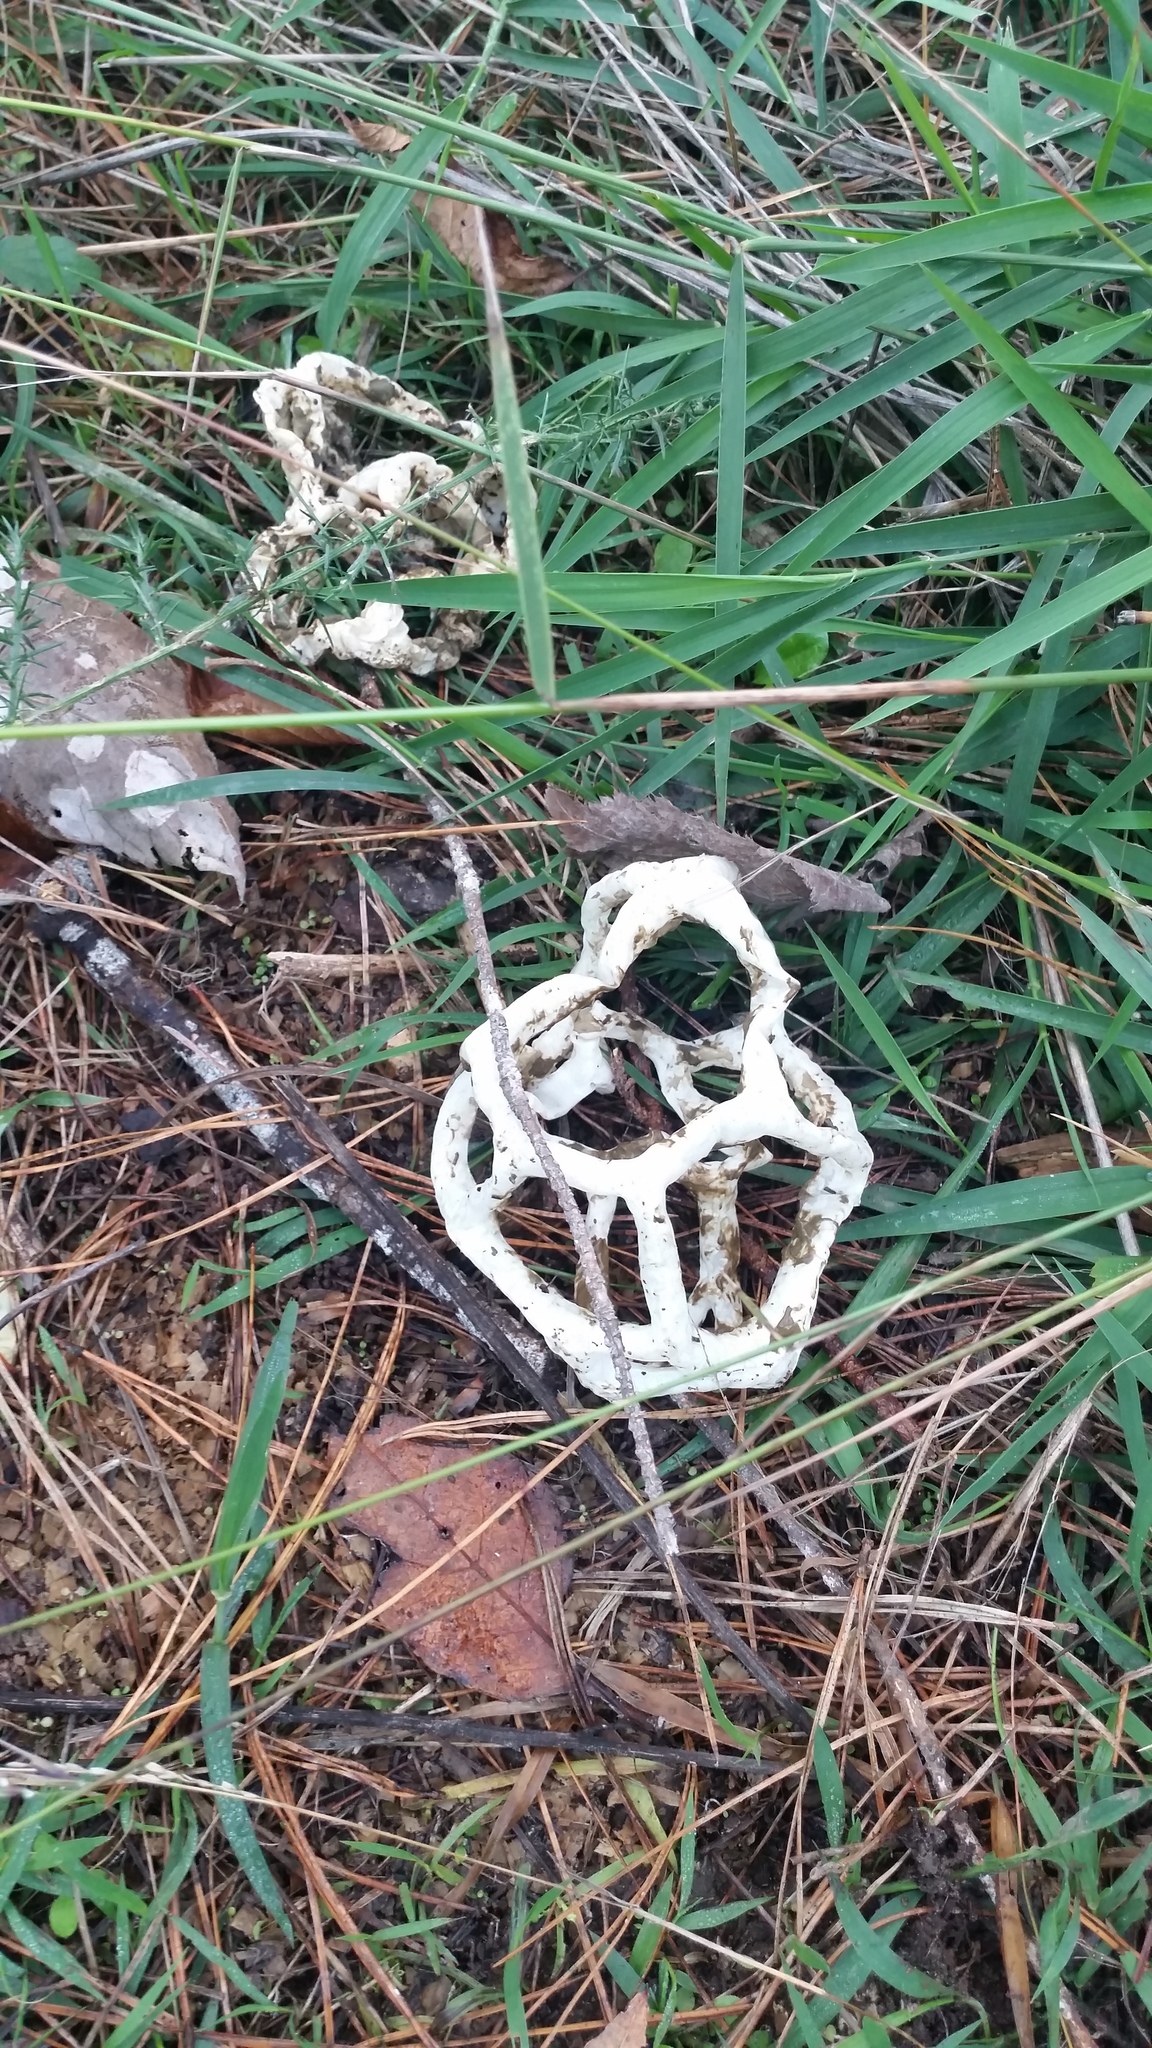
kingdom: Fungi
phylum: Basidiomycota
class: Agaricomycetes
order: Phallales
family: Phallaceae
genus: Ileodictyon
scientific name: Ileodictyon cibarium
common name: Basket fungus
